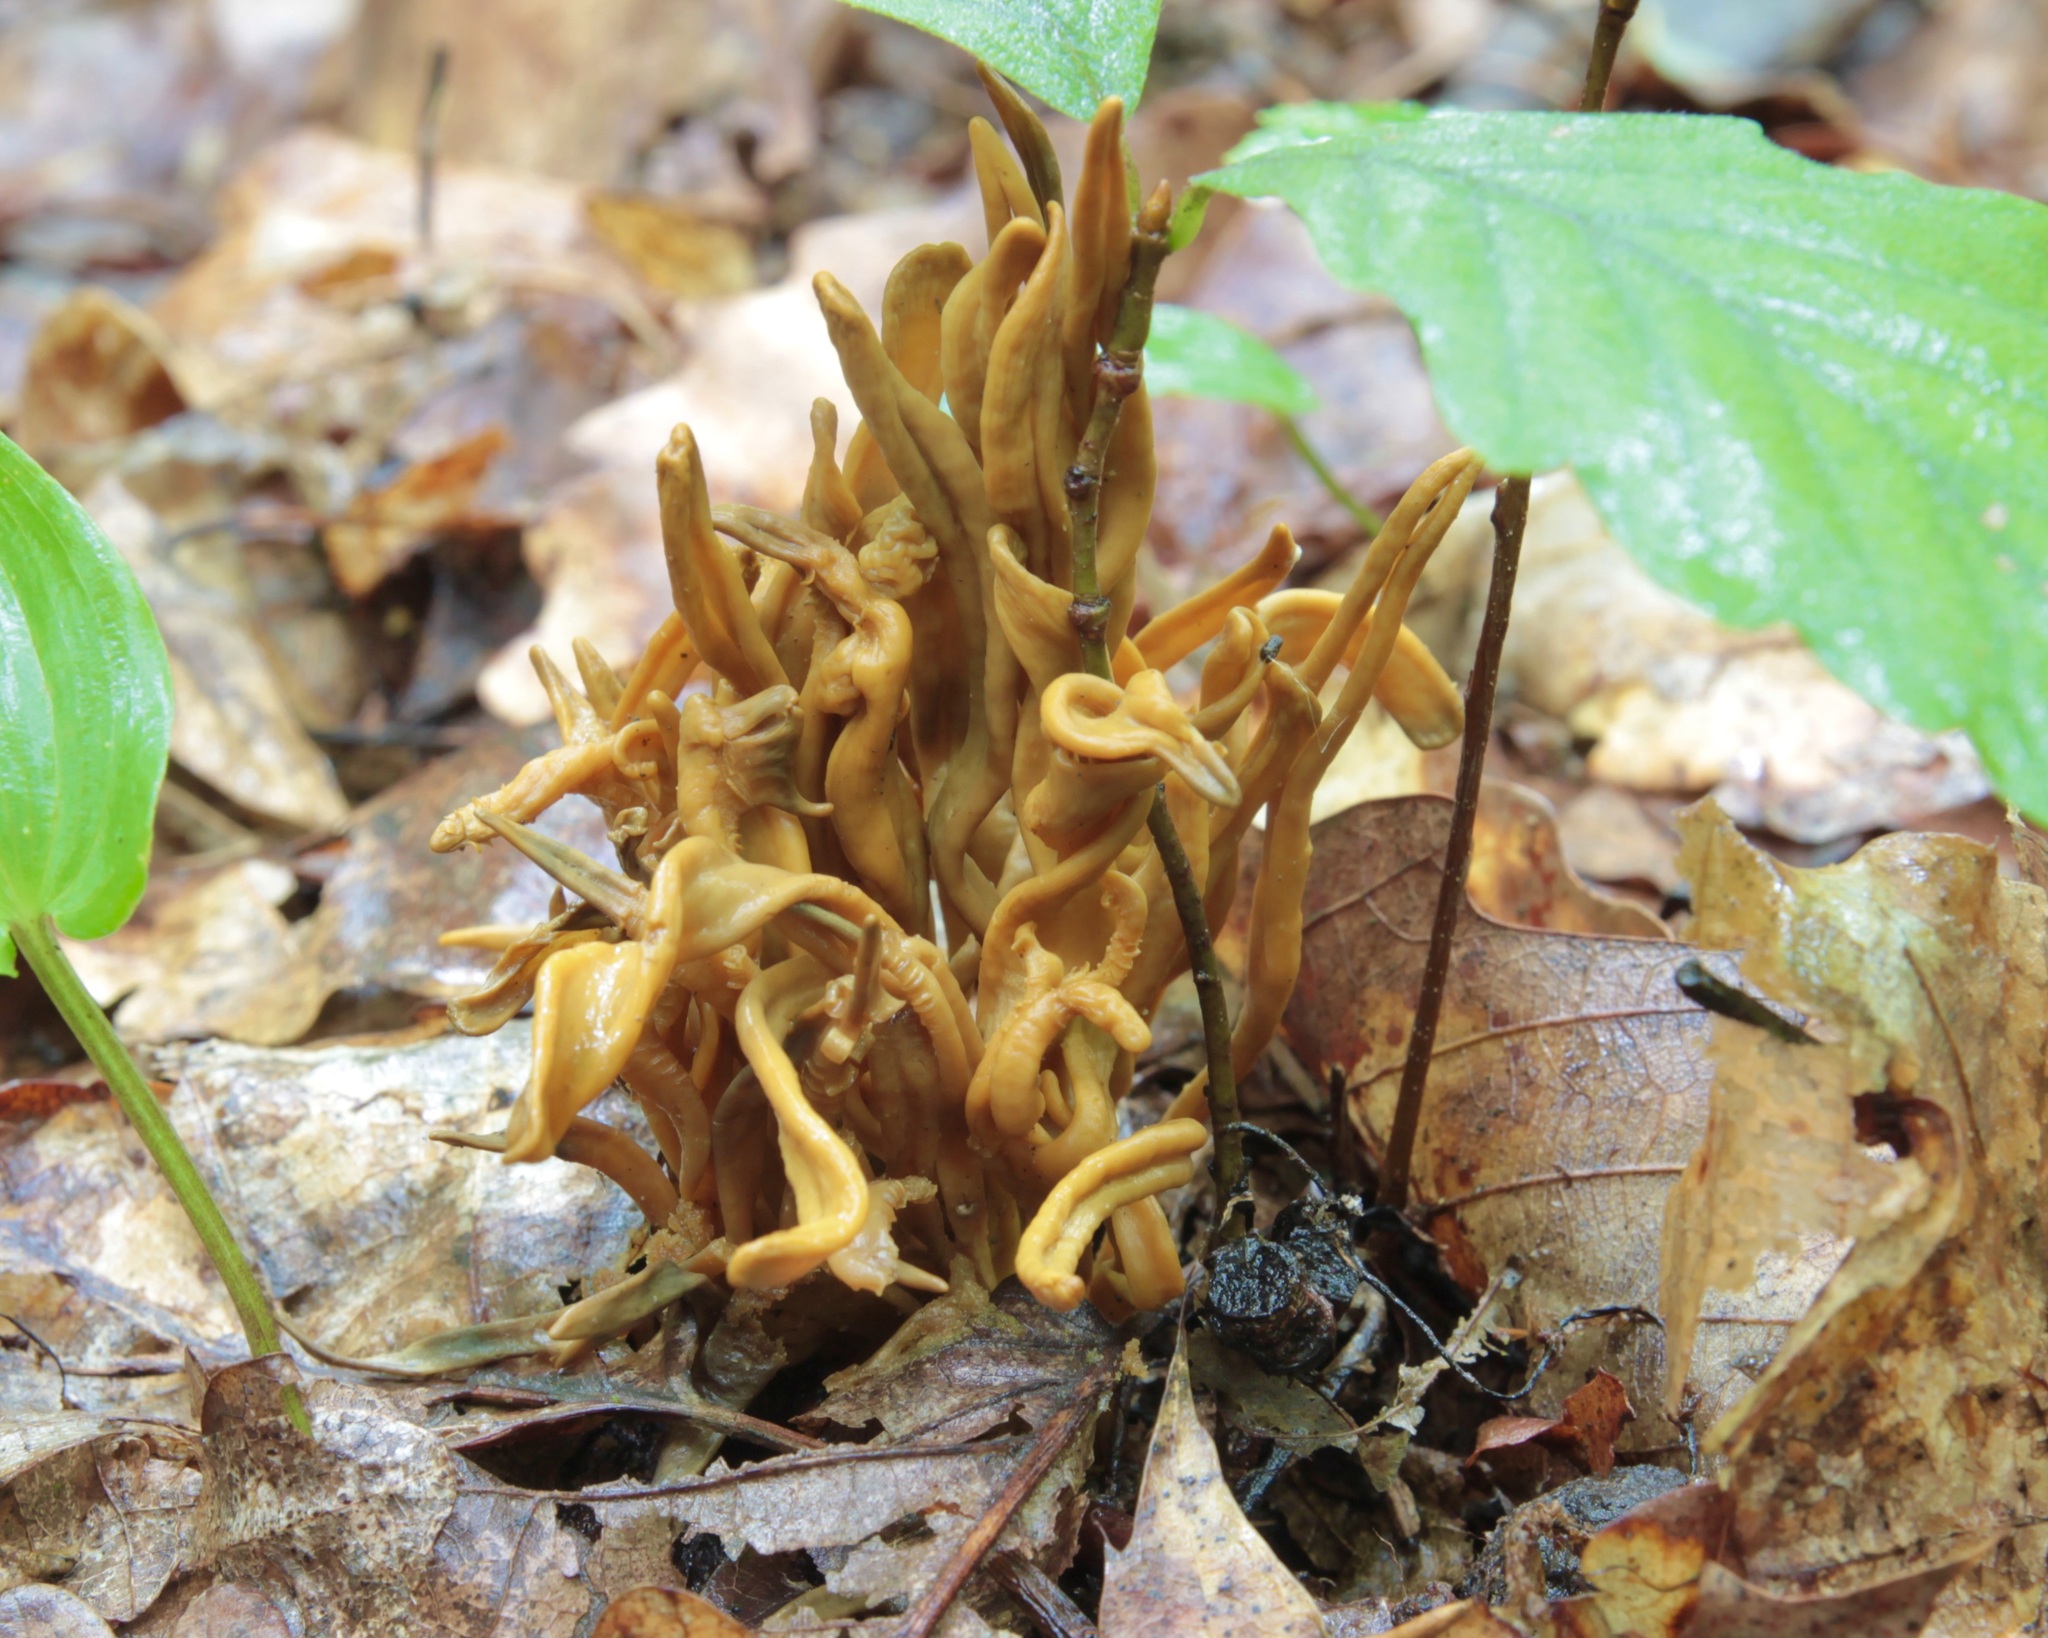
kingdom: Fungi
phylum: Basidiomycota
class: Agaricomycetes
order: Agaricales
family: Clavariaceae
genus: Clavulinopsis
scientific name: Clavulinopsis fusiformis
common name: Golden spindles
